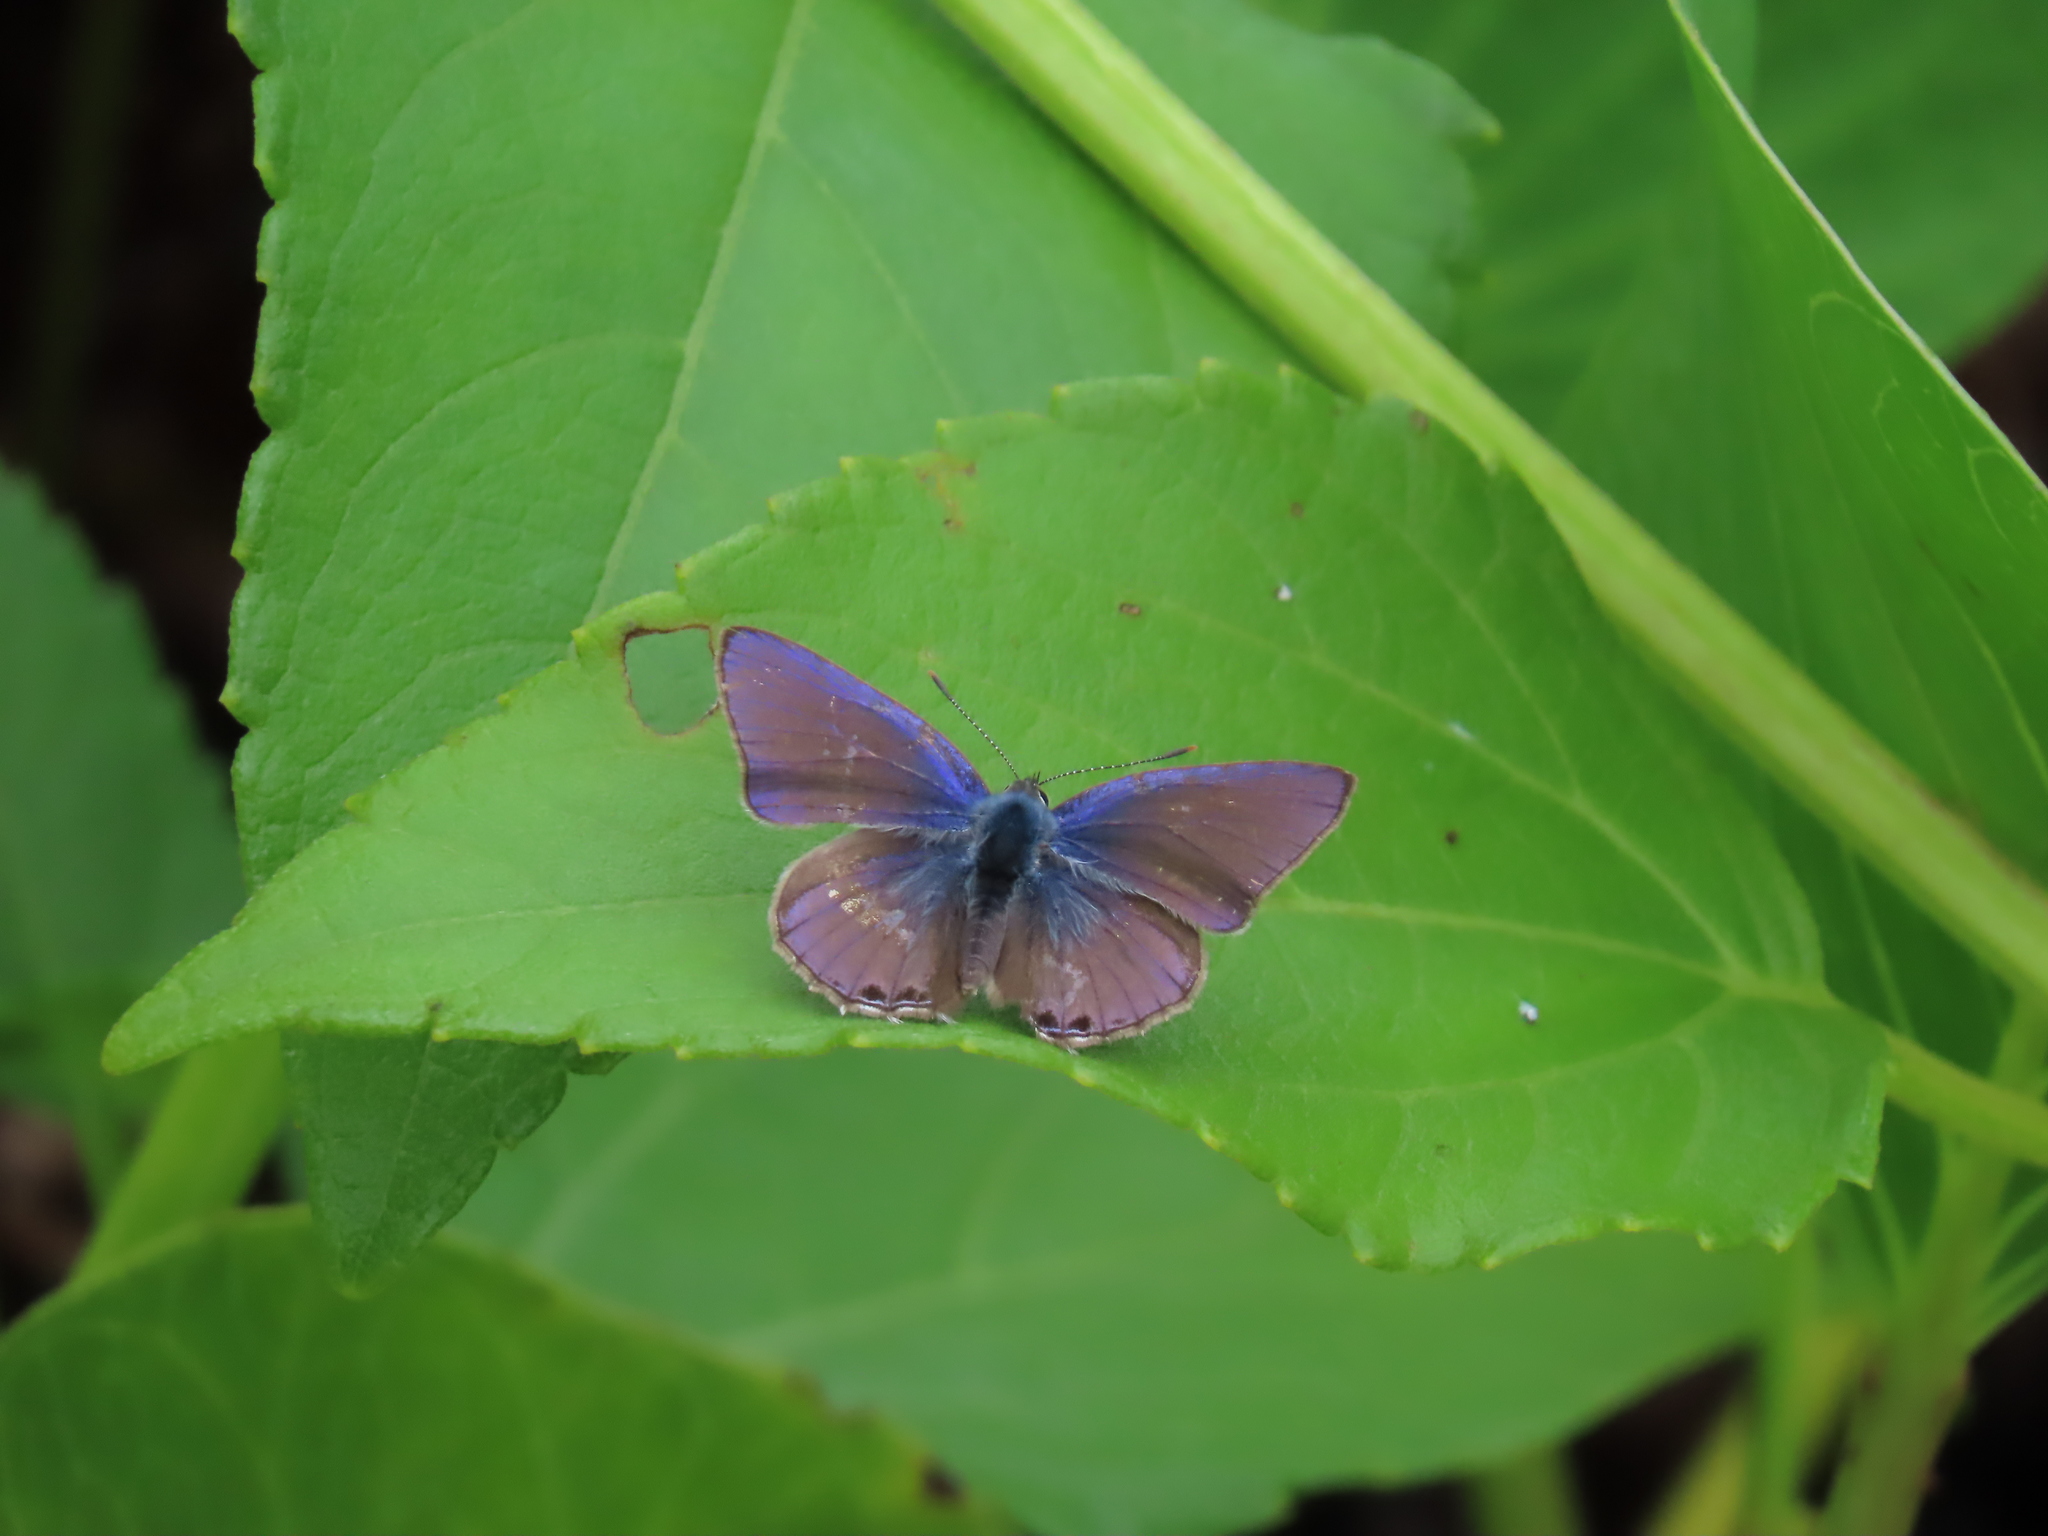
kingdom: Animalia
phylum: Arthropoda
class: Insecta
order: Lepidoptera
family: Lycaenidae
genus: Anthene
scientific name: Anthene seltuttus
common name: Dark ciliated-blue
